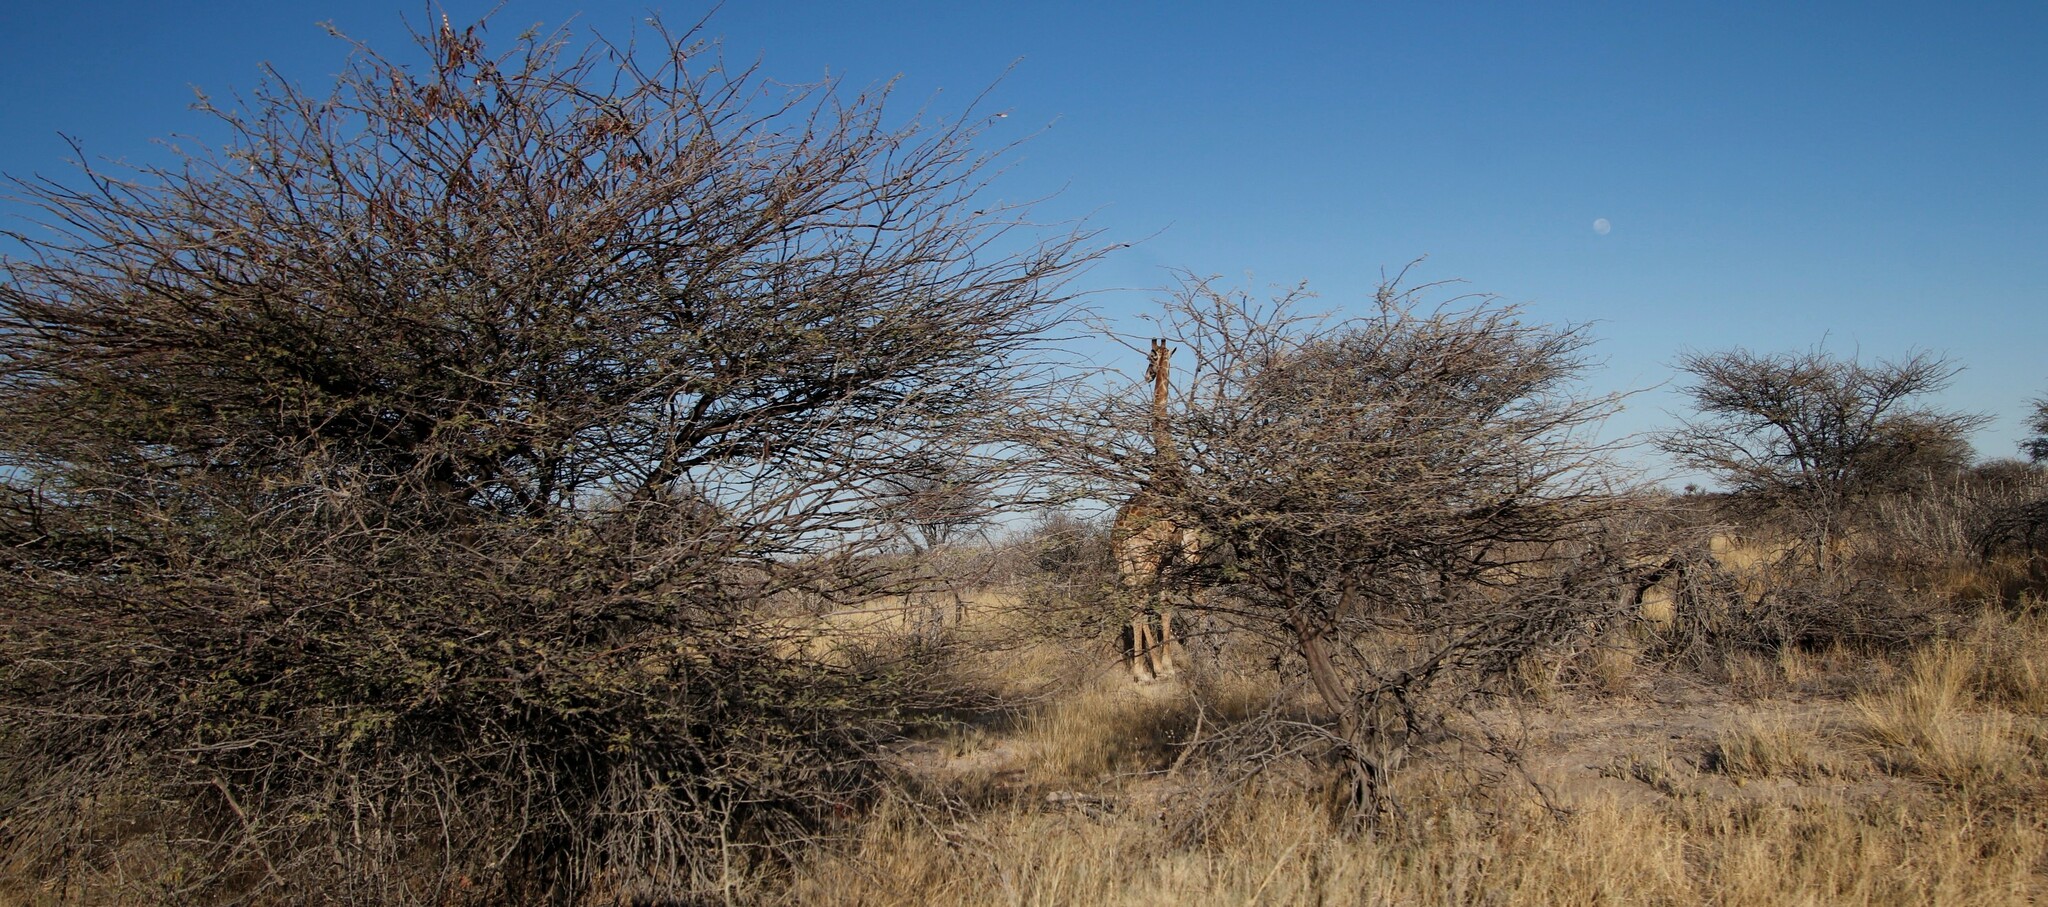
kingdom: Animalia
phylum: Chordata
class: Mammalia
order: Artiodactyla
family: Giraffidae
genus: Giraffa
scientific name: Giraffa giraffa
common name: Southern giraffe
